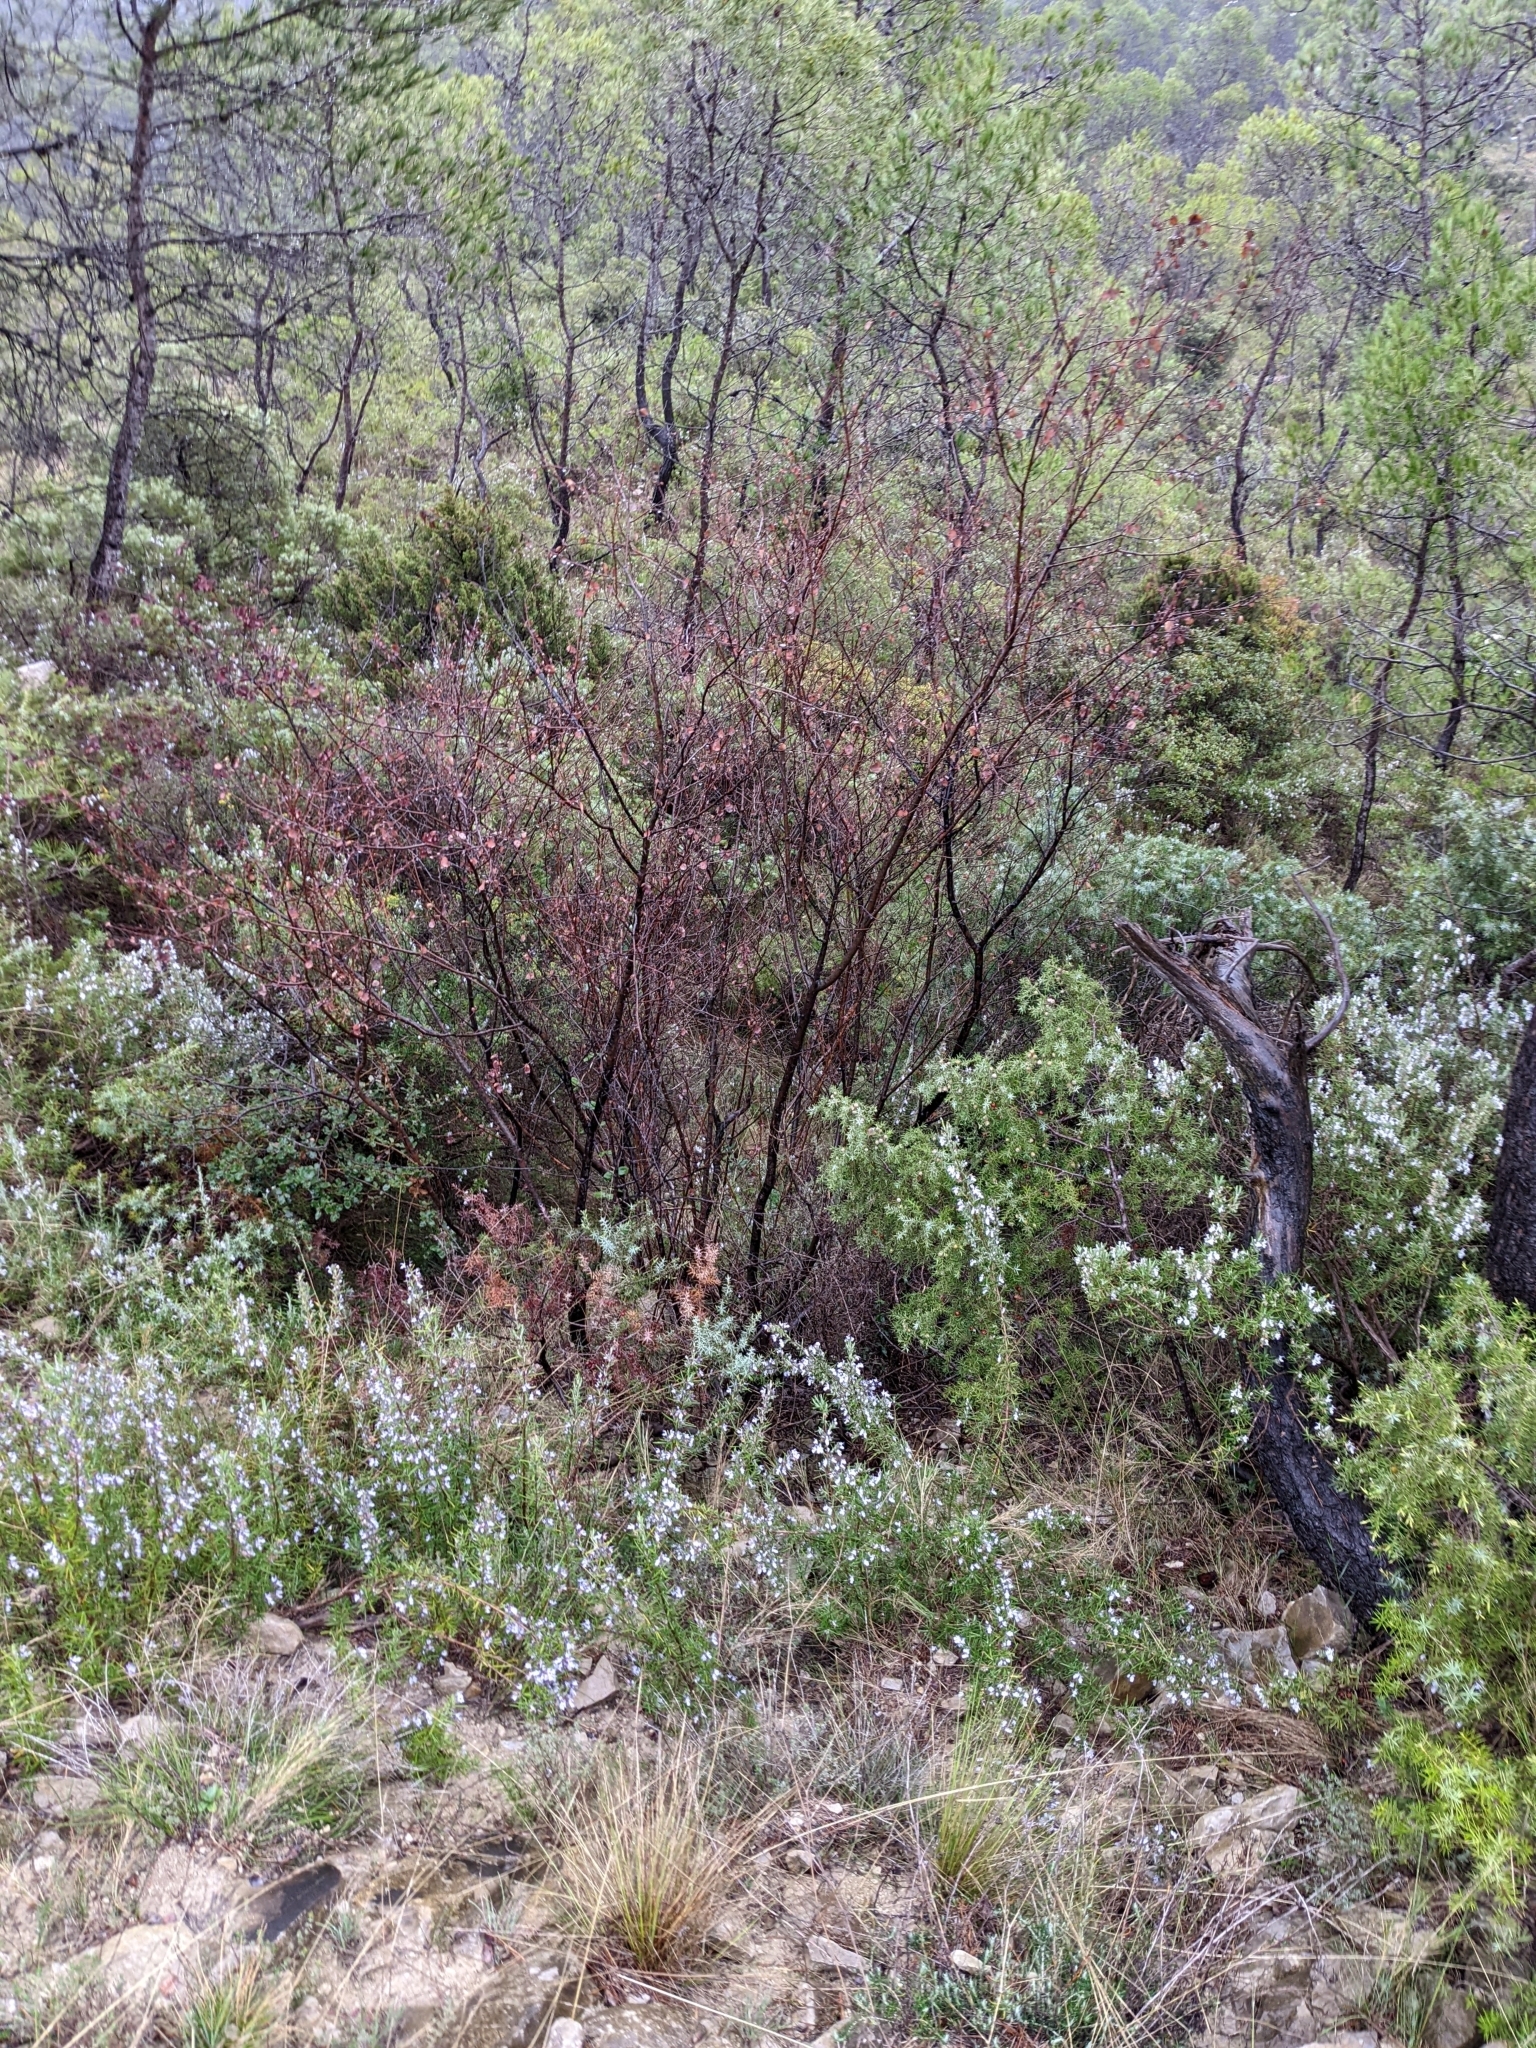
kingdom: Plantae
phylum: Tracheophyta
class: Magnoliopsida
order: Rosales
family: Rosaceae
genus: Amelanchier
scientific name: Amelanchier ovalis
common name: Serviceberry
